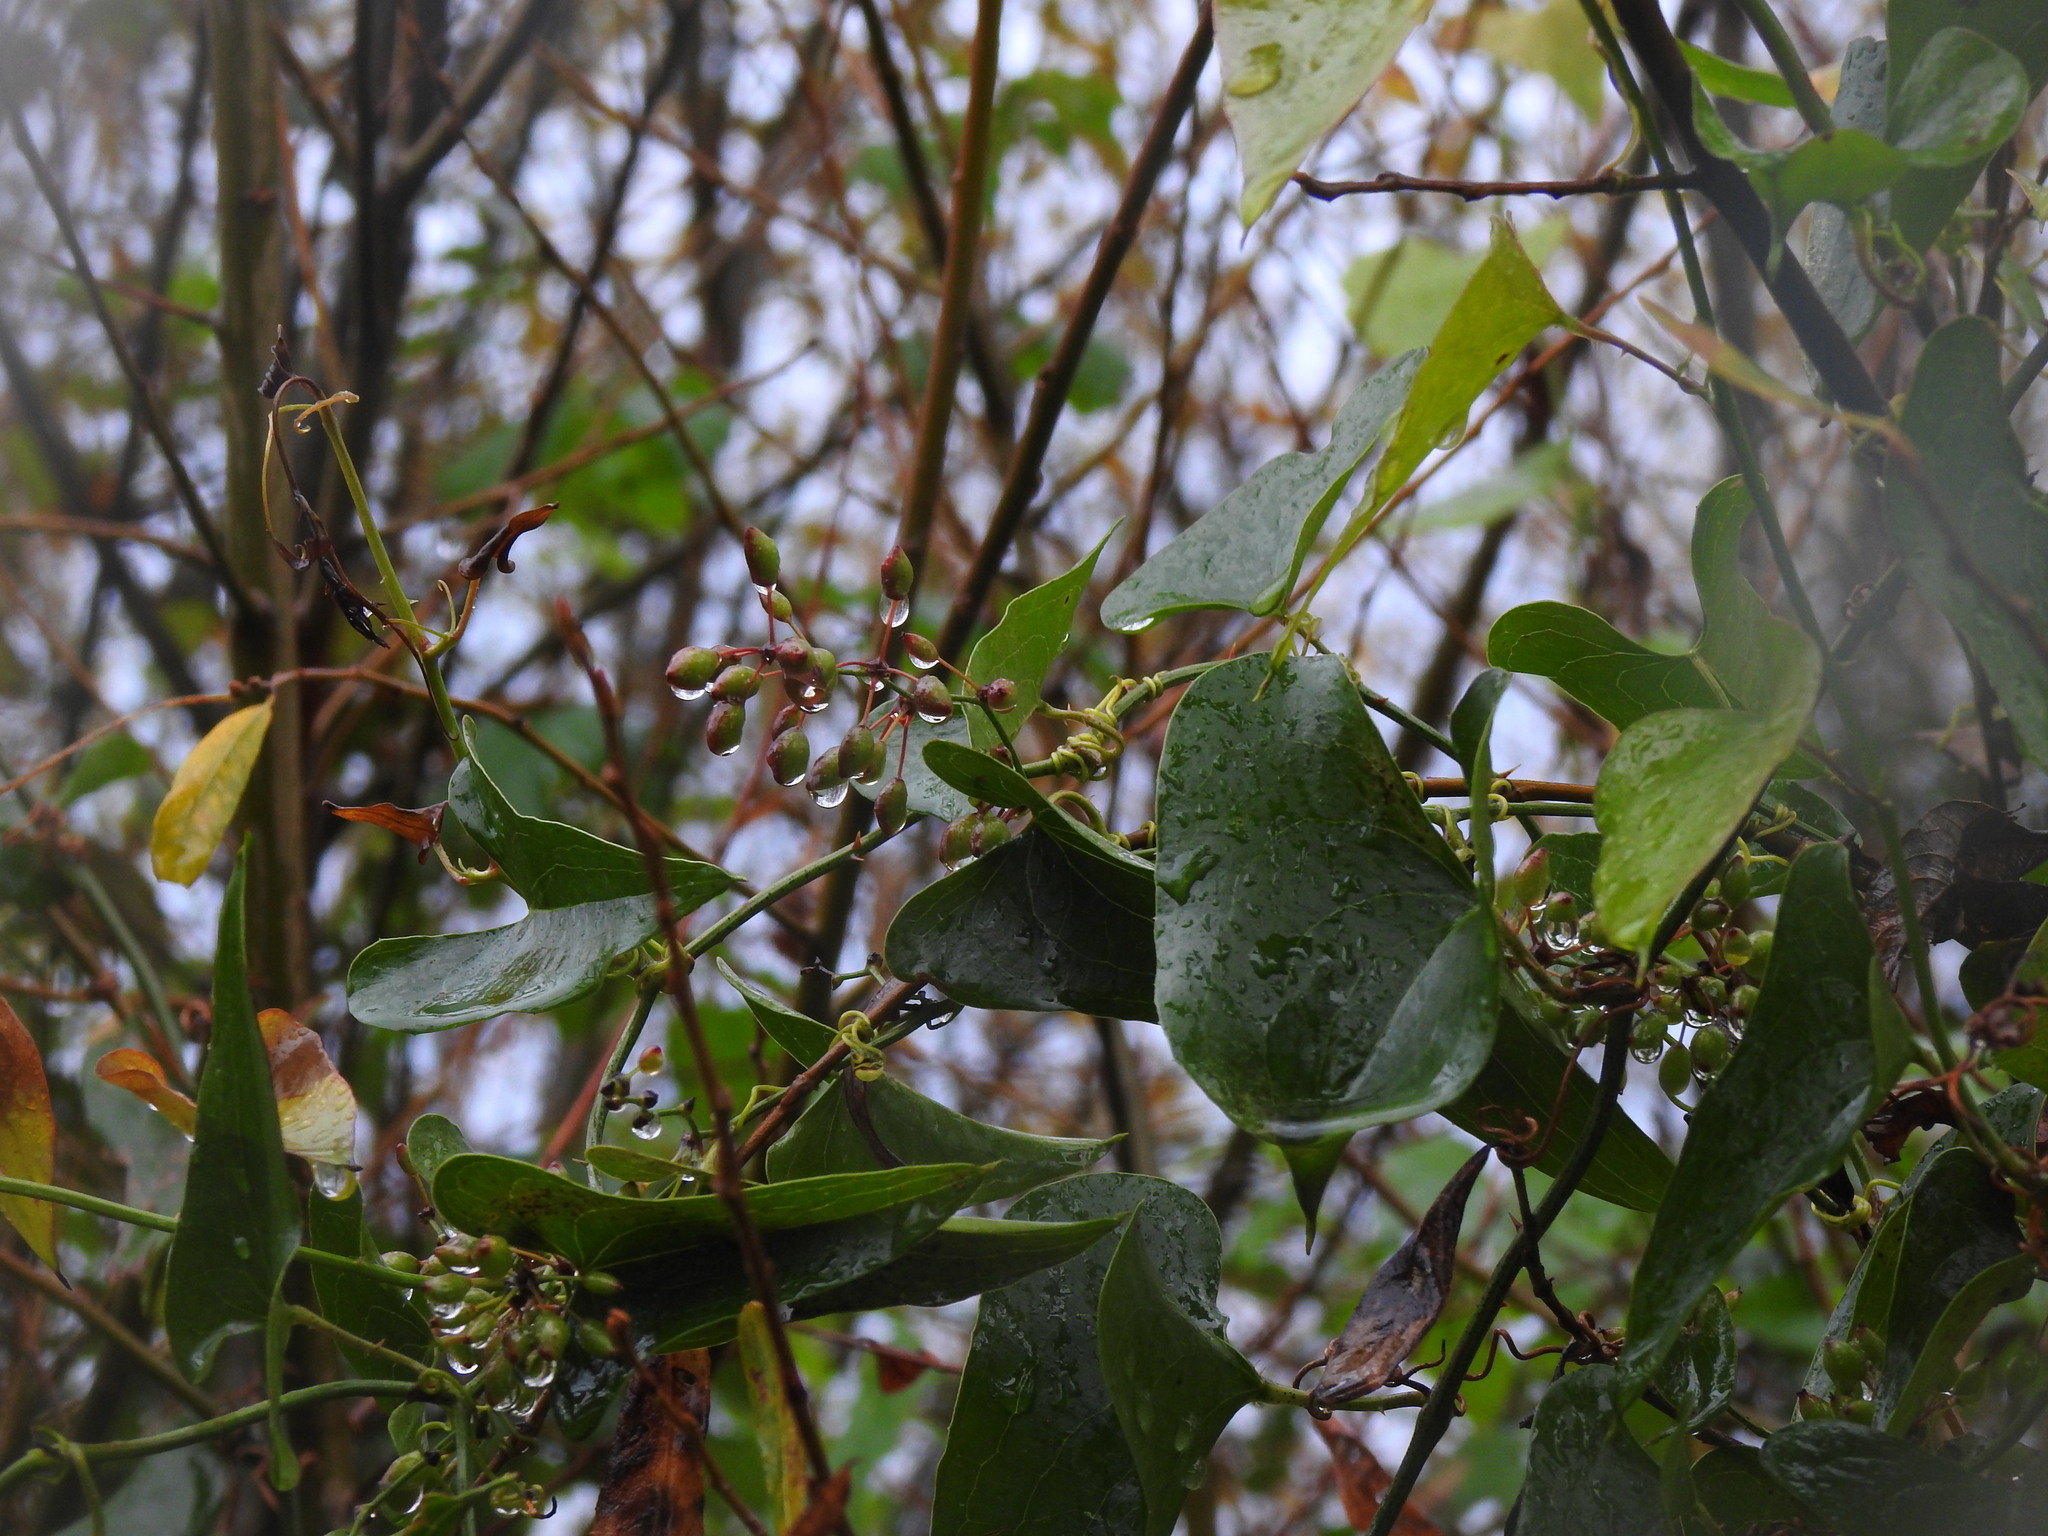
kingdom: Plantae
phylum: Tracheophyta
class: Liliopsida
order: Liliales
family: Smilacaceae
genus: Smilax
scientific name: Smilax aspera
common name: Common smilax
